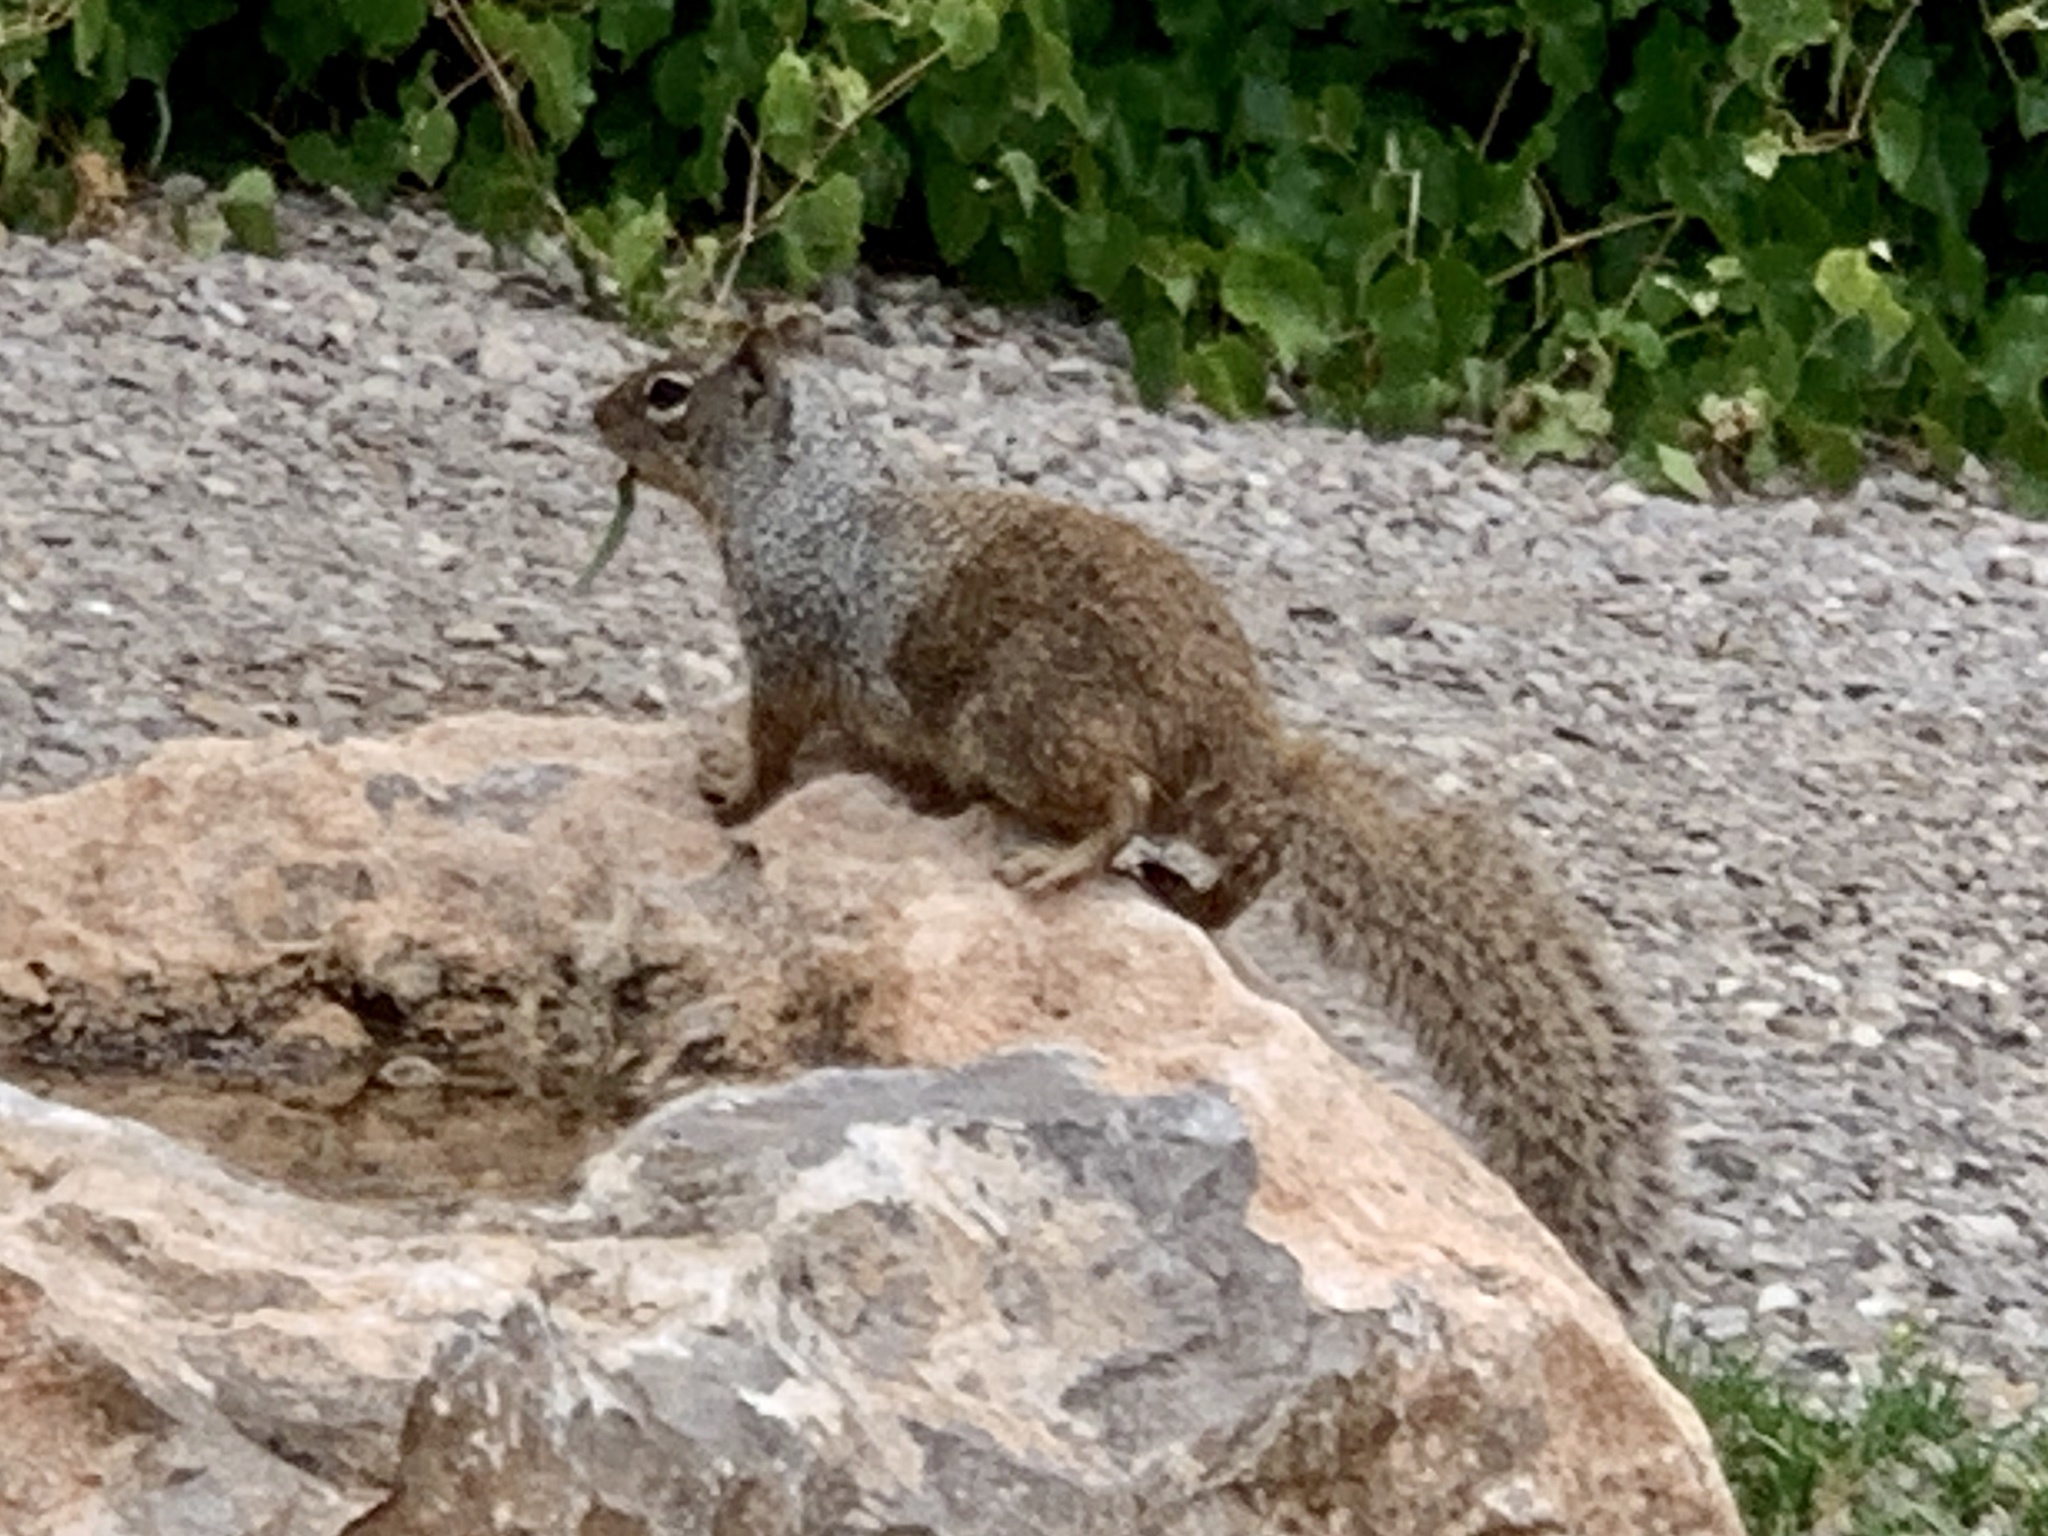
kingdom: Animalia
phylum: Chordata
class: Mammalia
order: Rodentia
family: Sciuridae
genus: Otospermophilus
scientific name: Otospermophilus variegatus
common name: Rock squirrel
